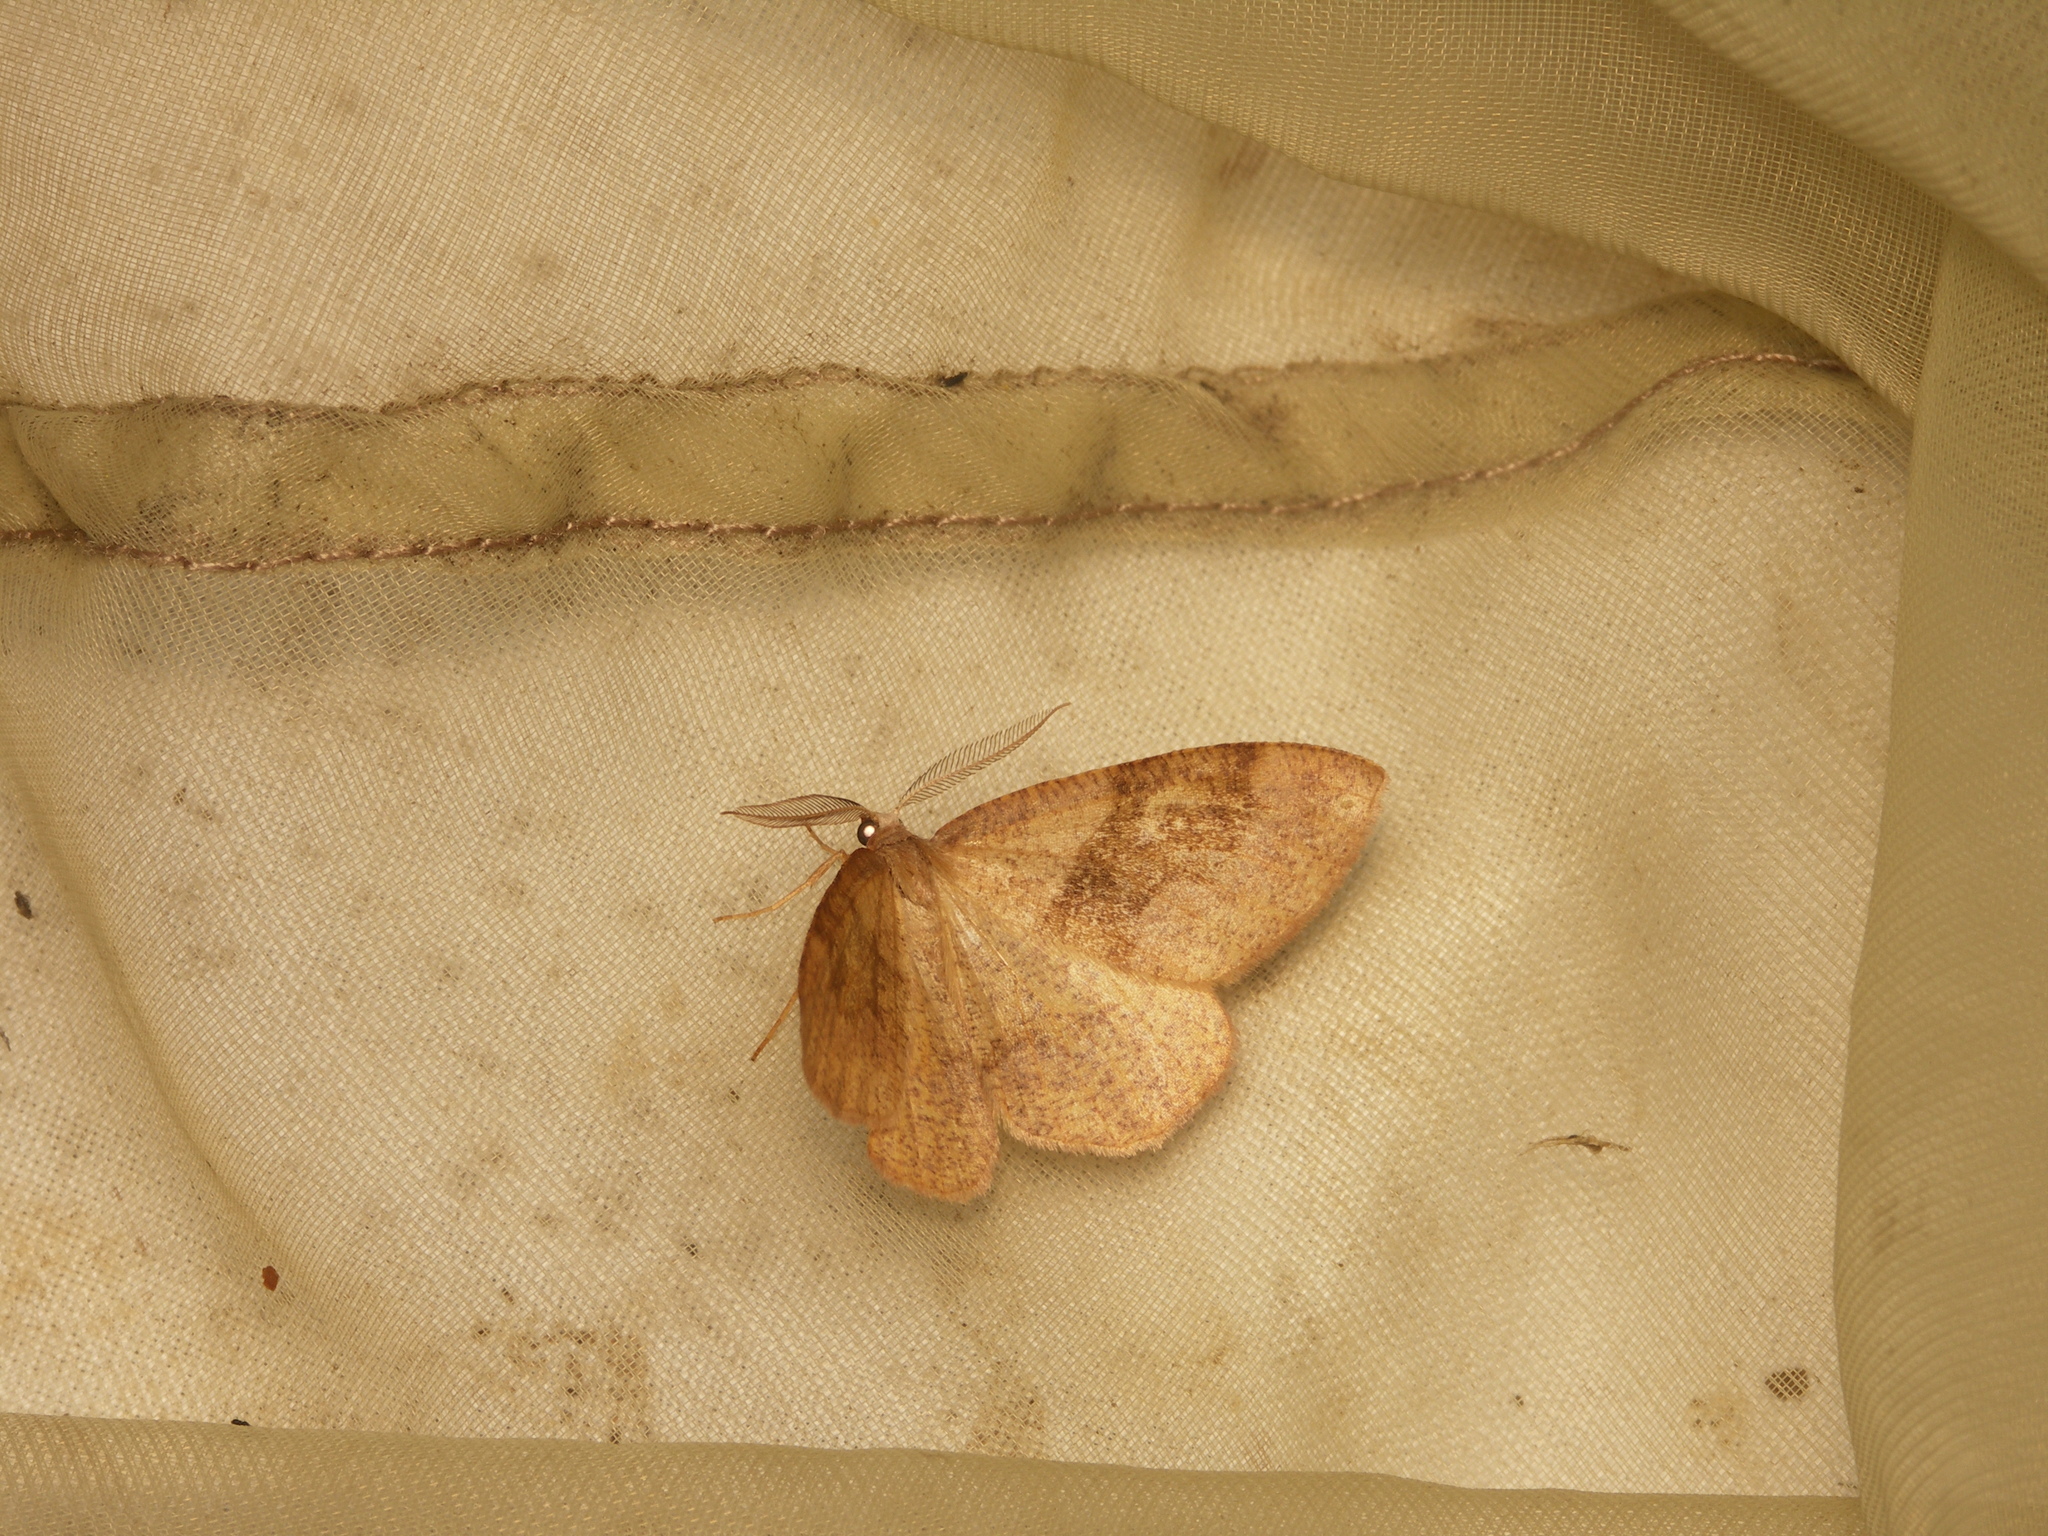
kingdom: Animalia
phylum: Arthropoda
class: Insecta
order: Lepidoptera
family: Geometridae
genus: Plagodis
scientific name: Plagodis pulveraria
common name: Barred umber
